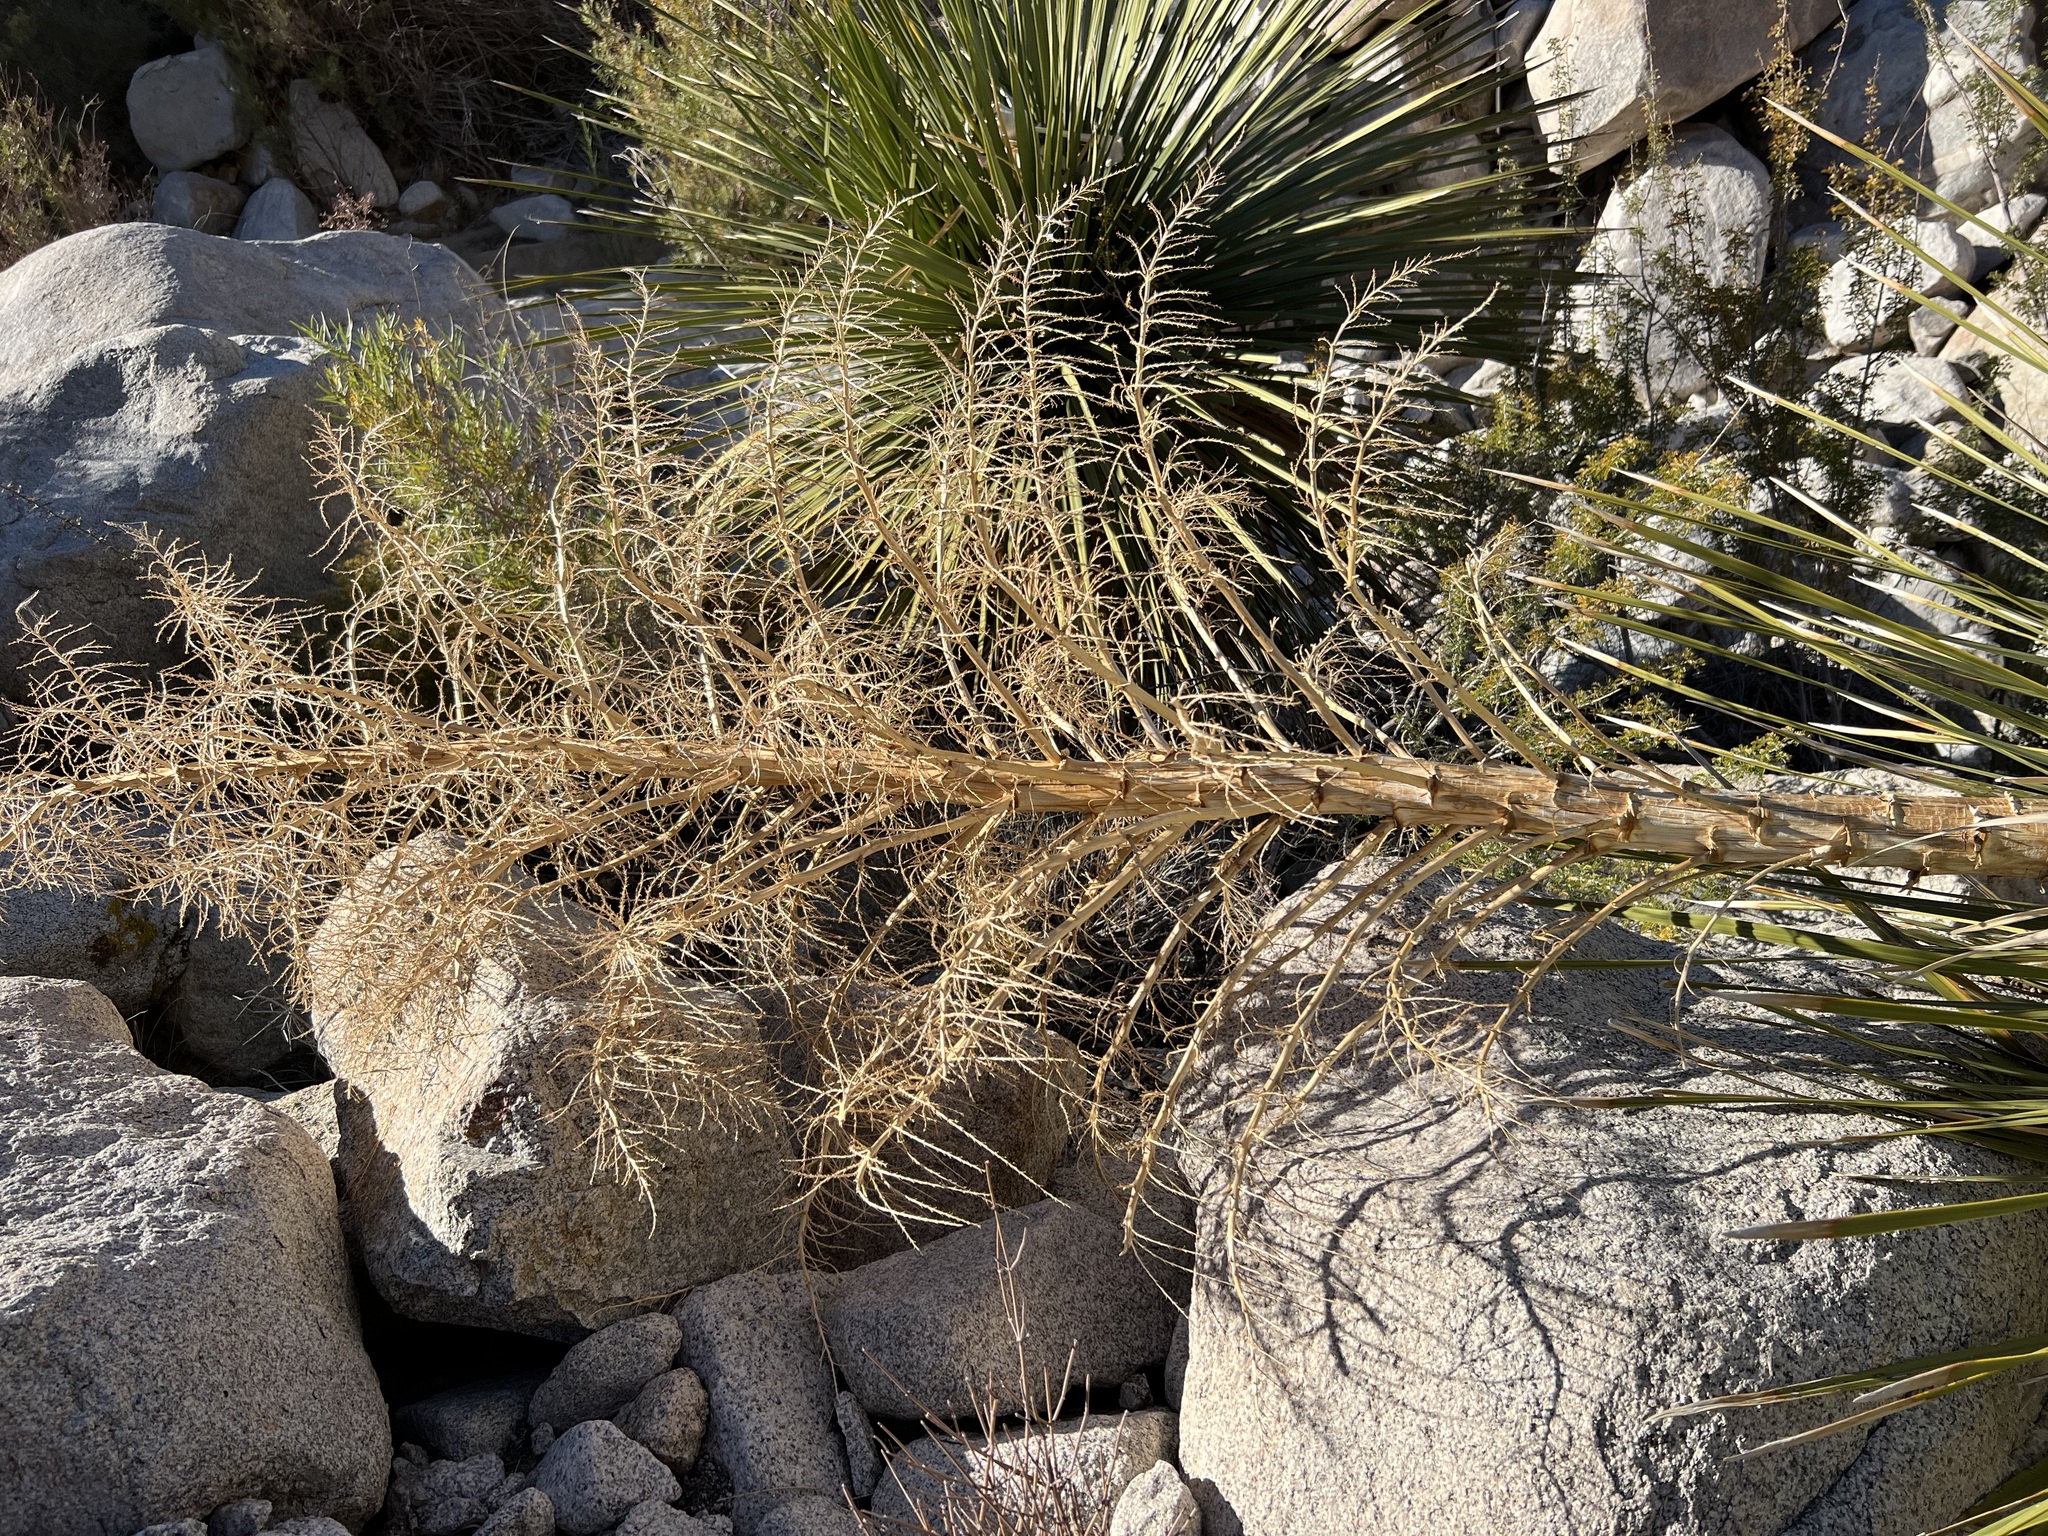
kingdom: Plantae
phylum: Tracheophyta
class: Liliopsida
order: Asparagales
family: Asparagaceae
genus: Nolina
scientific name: Nolina parryi
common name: Parry nolina
